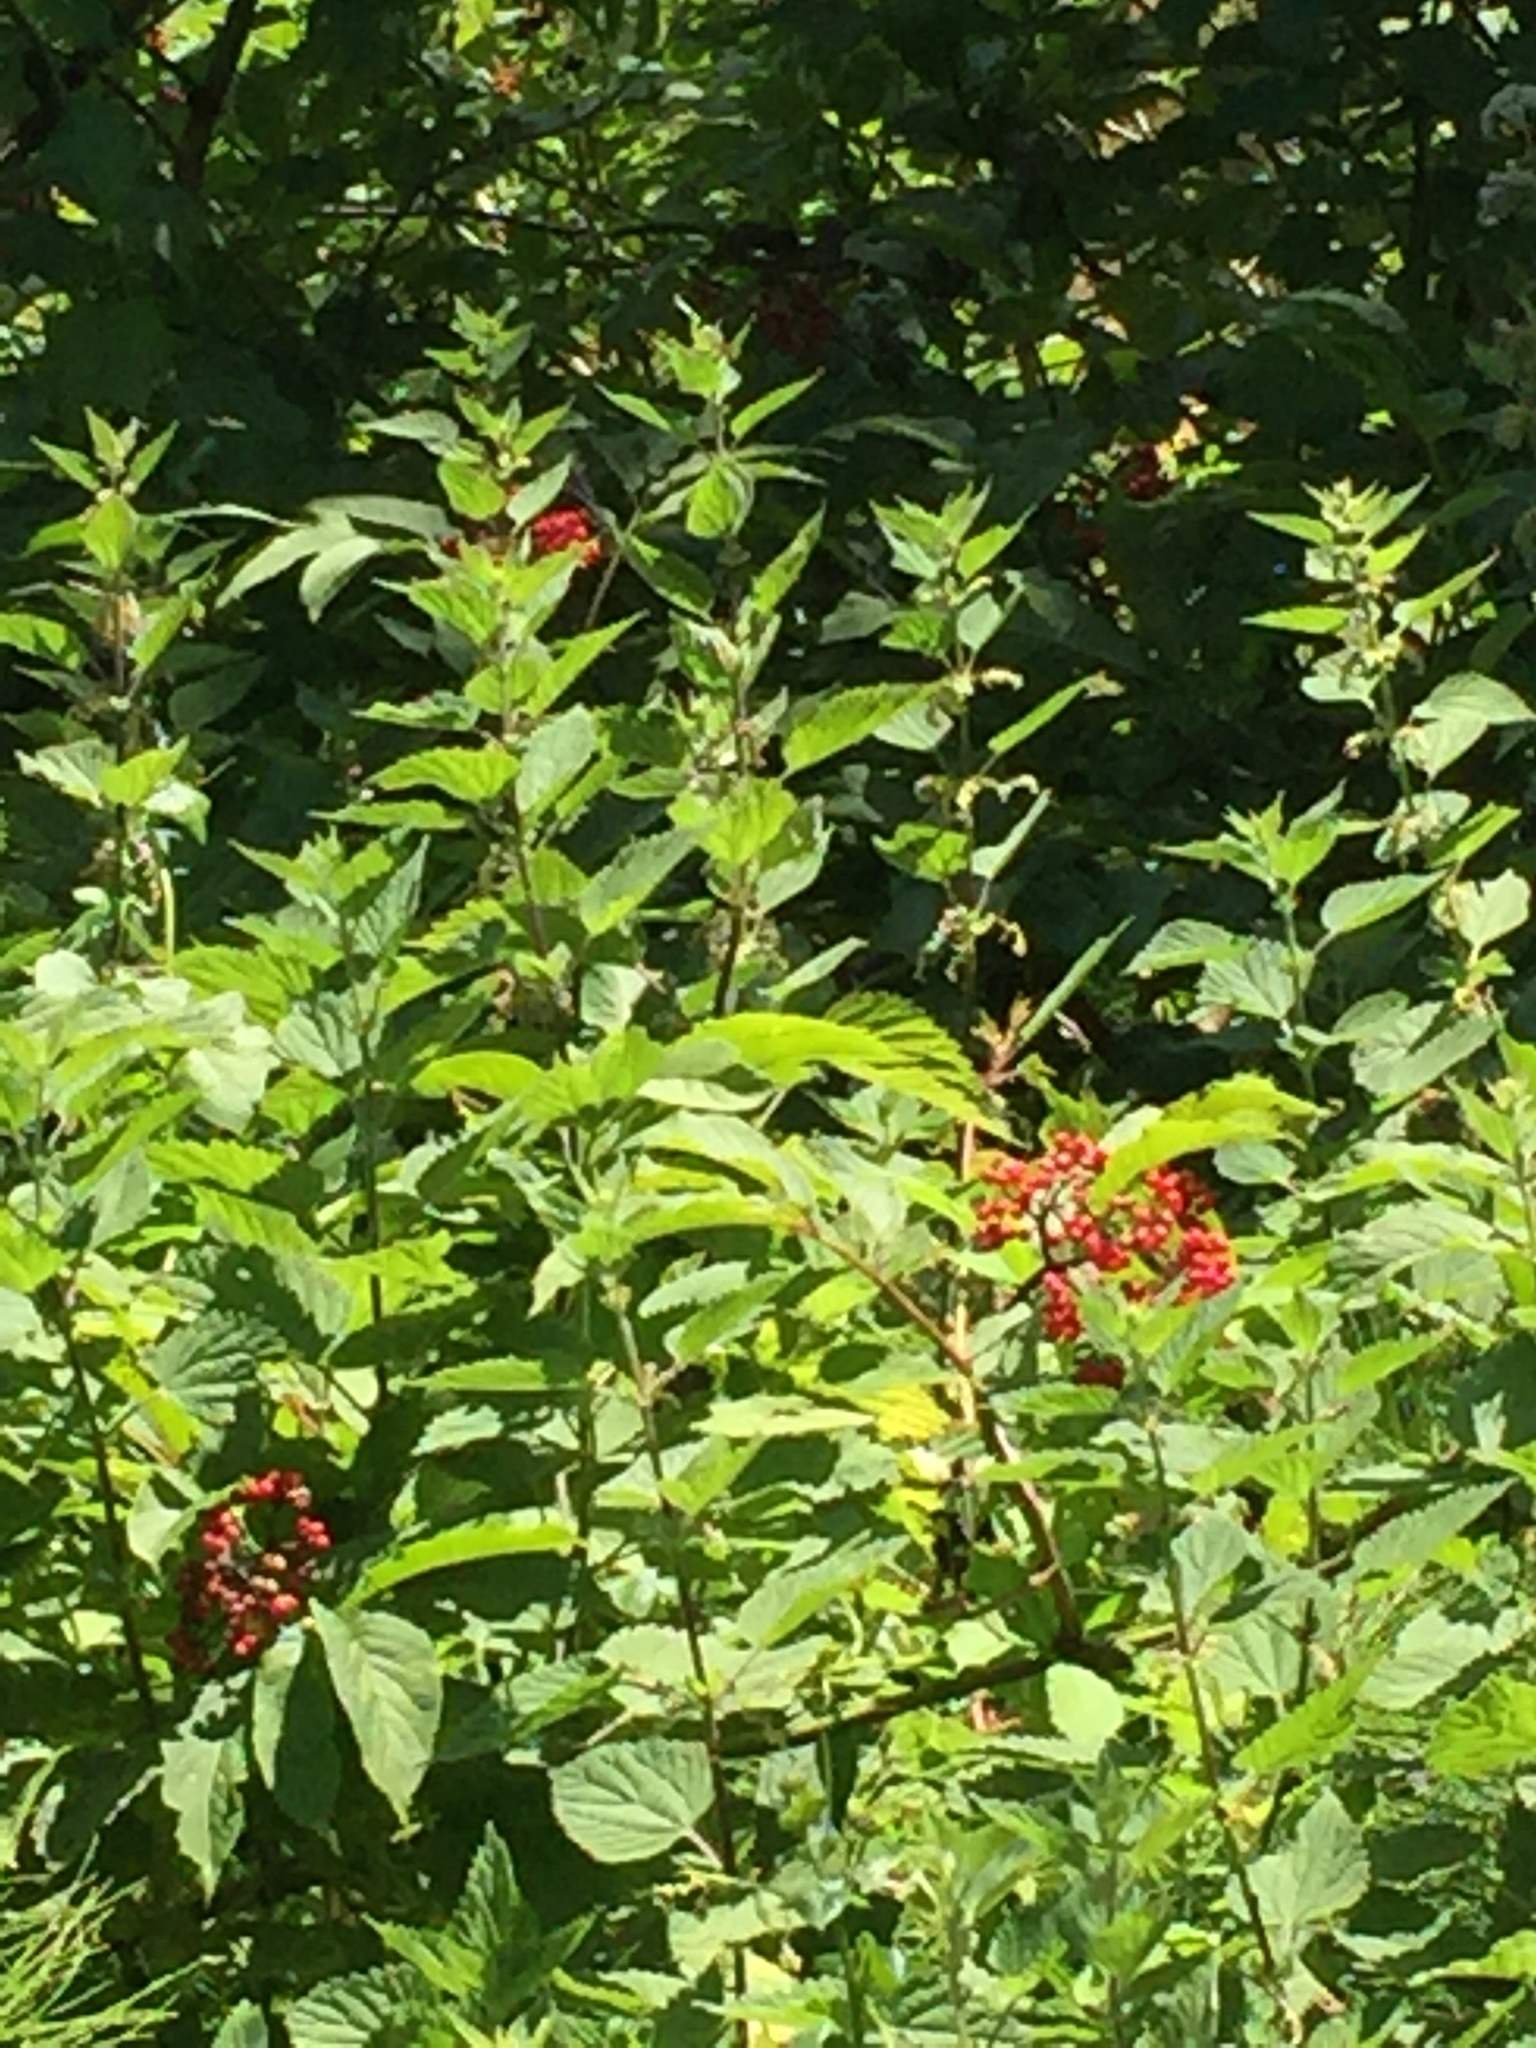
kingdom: Plantae
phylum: Tracheophyta
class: Magnoliopsida
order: Dipsacales
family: Viburnaceae
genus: Sambucus
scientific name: Sambucus racemosa
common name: Red-berried elder
